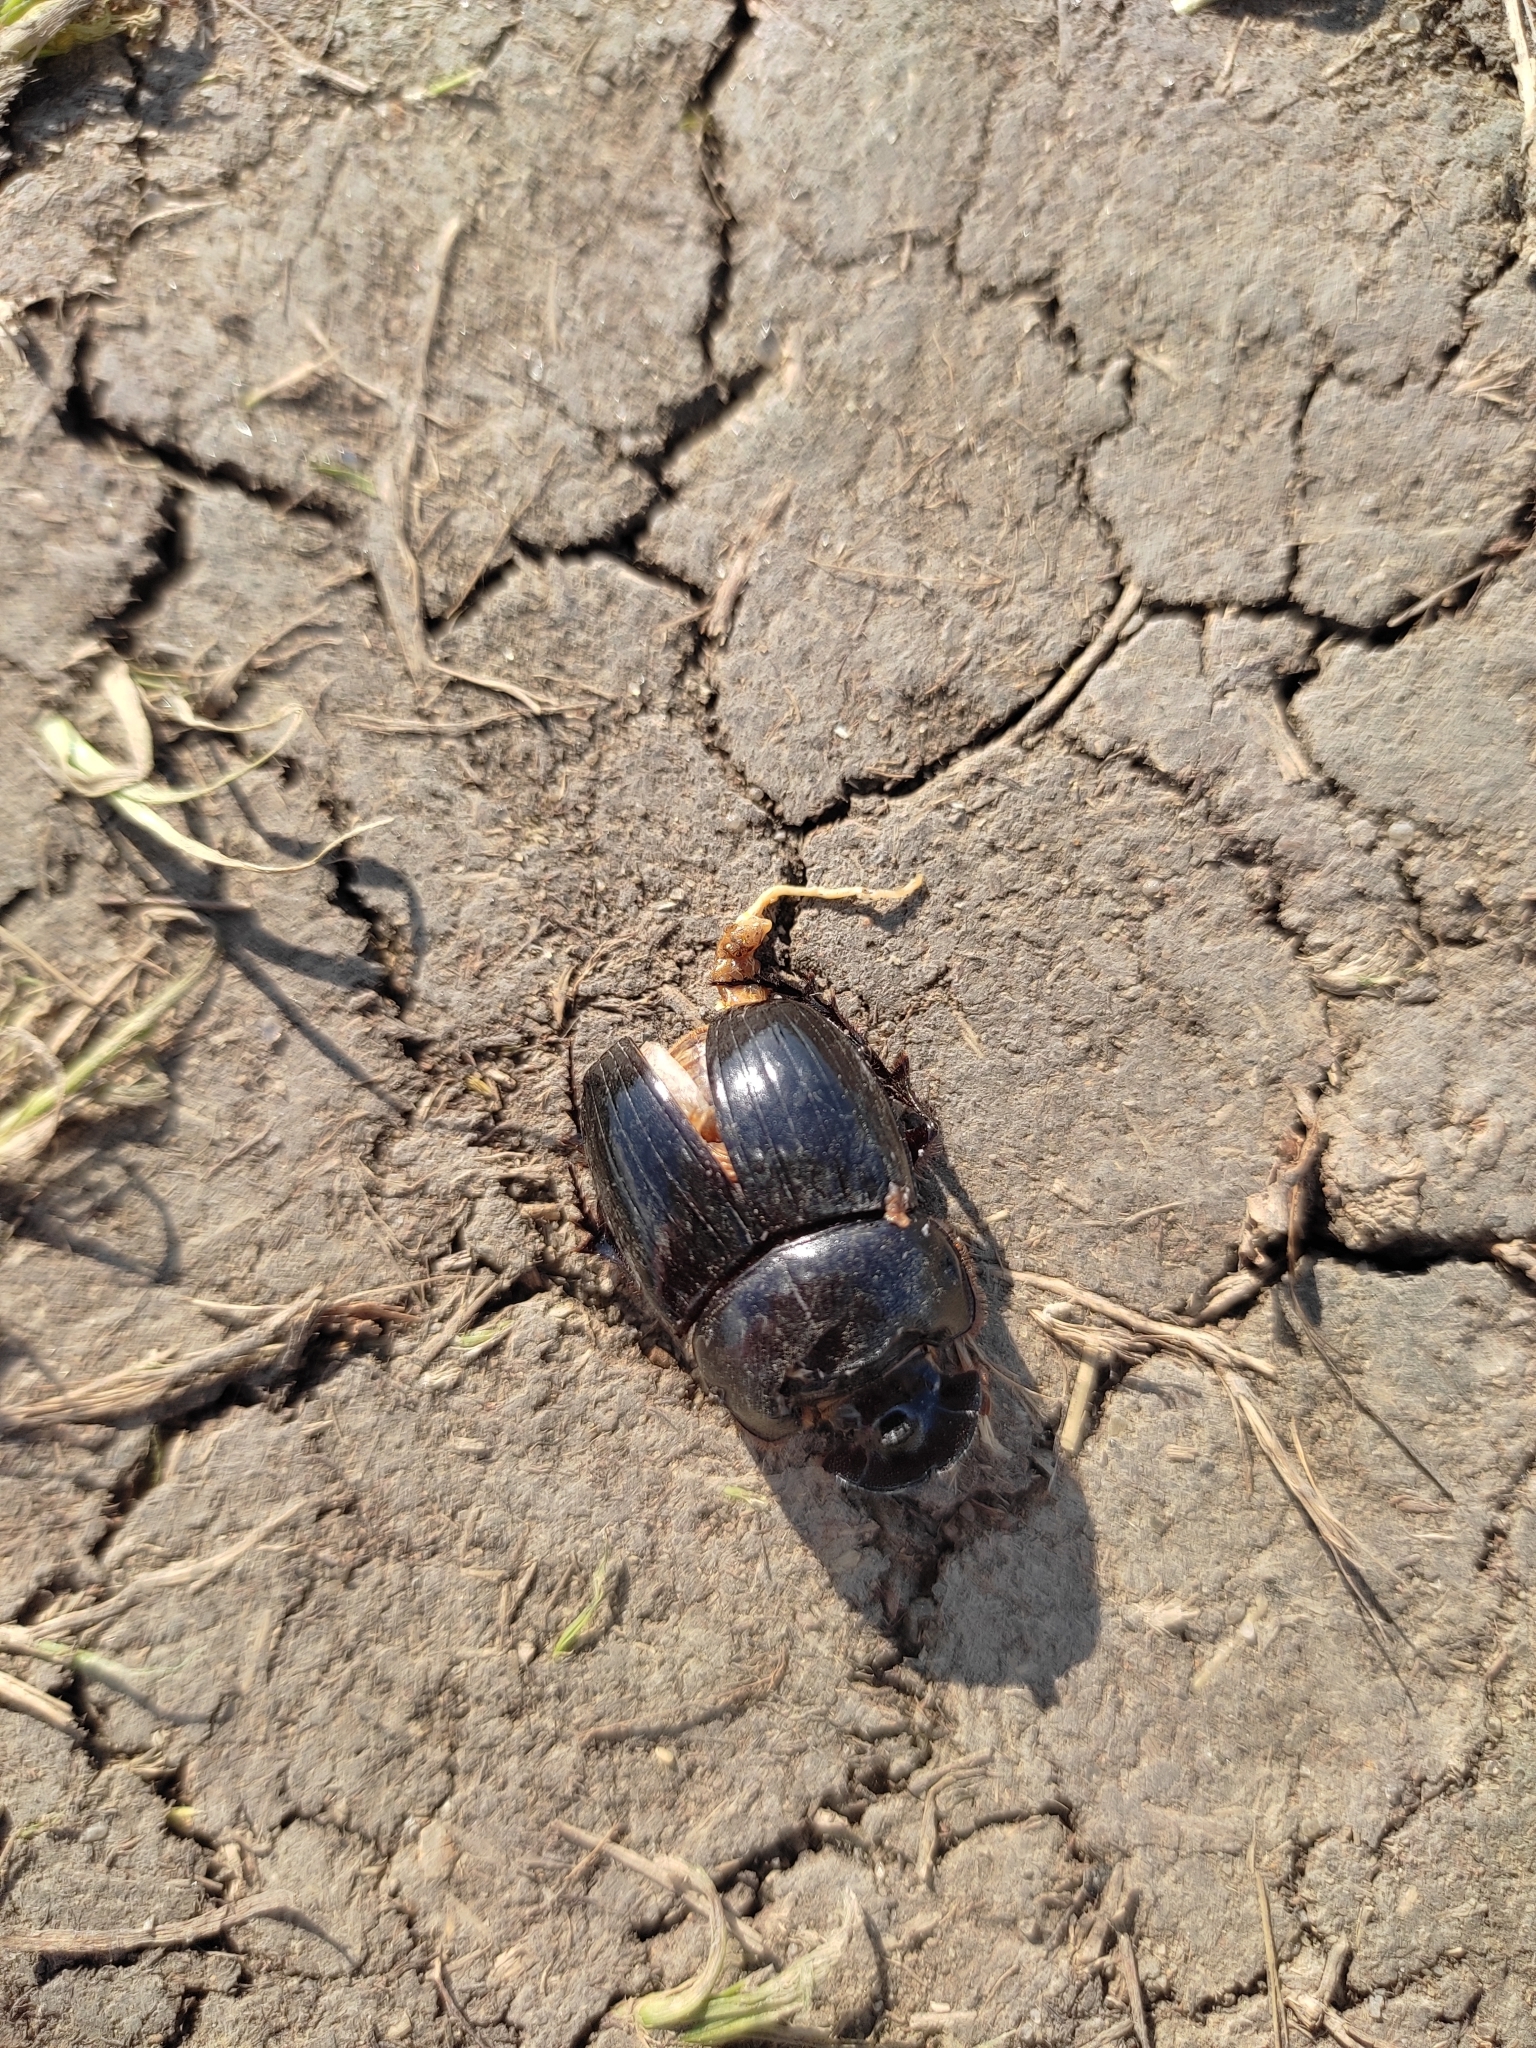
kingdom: Animalia
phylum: Arthropoda
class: Insecta
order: Coleoptera
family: Scarabaeidae
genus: Copris
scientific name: Copris lunaris
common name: Horned dung beetle
